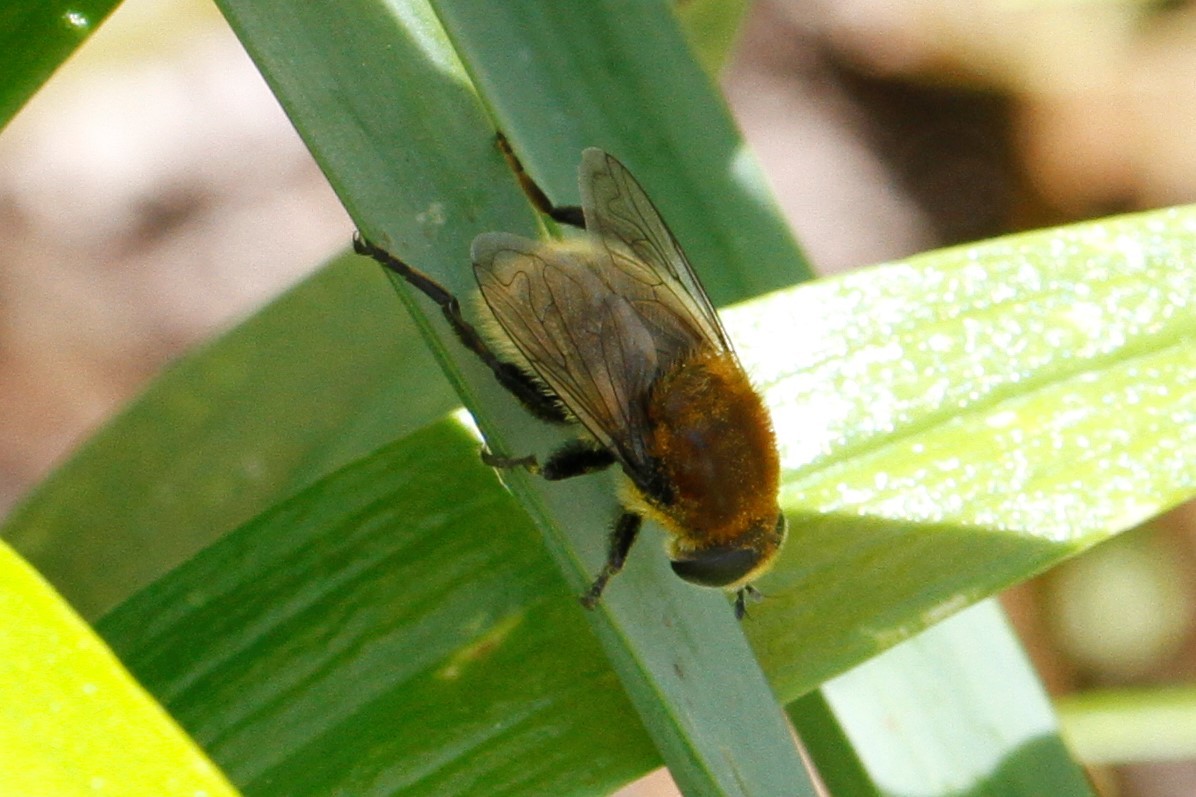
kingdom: Animalia
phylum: Arthropoda
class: Insecta
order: Diptera
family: Syrphidae
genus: Merodon
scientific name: Merodon equestris
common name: Greater bulb-fly
